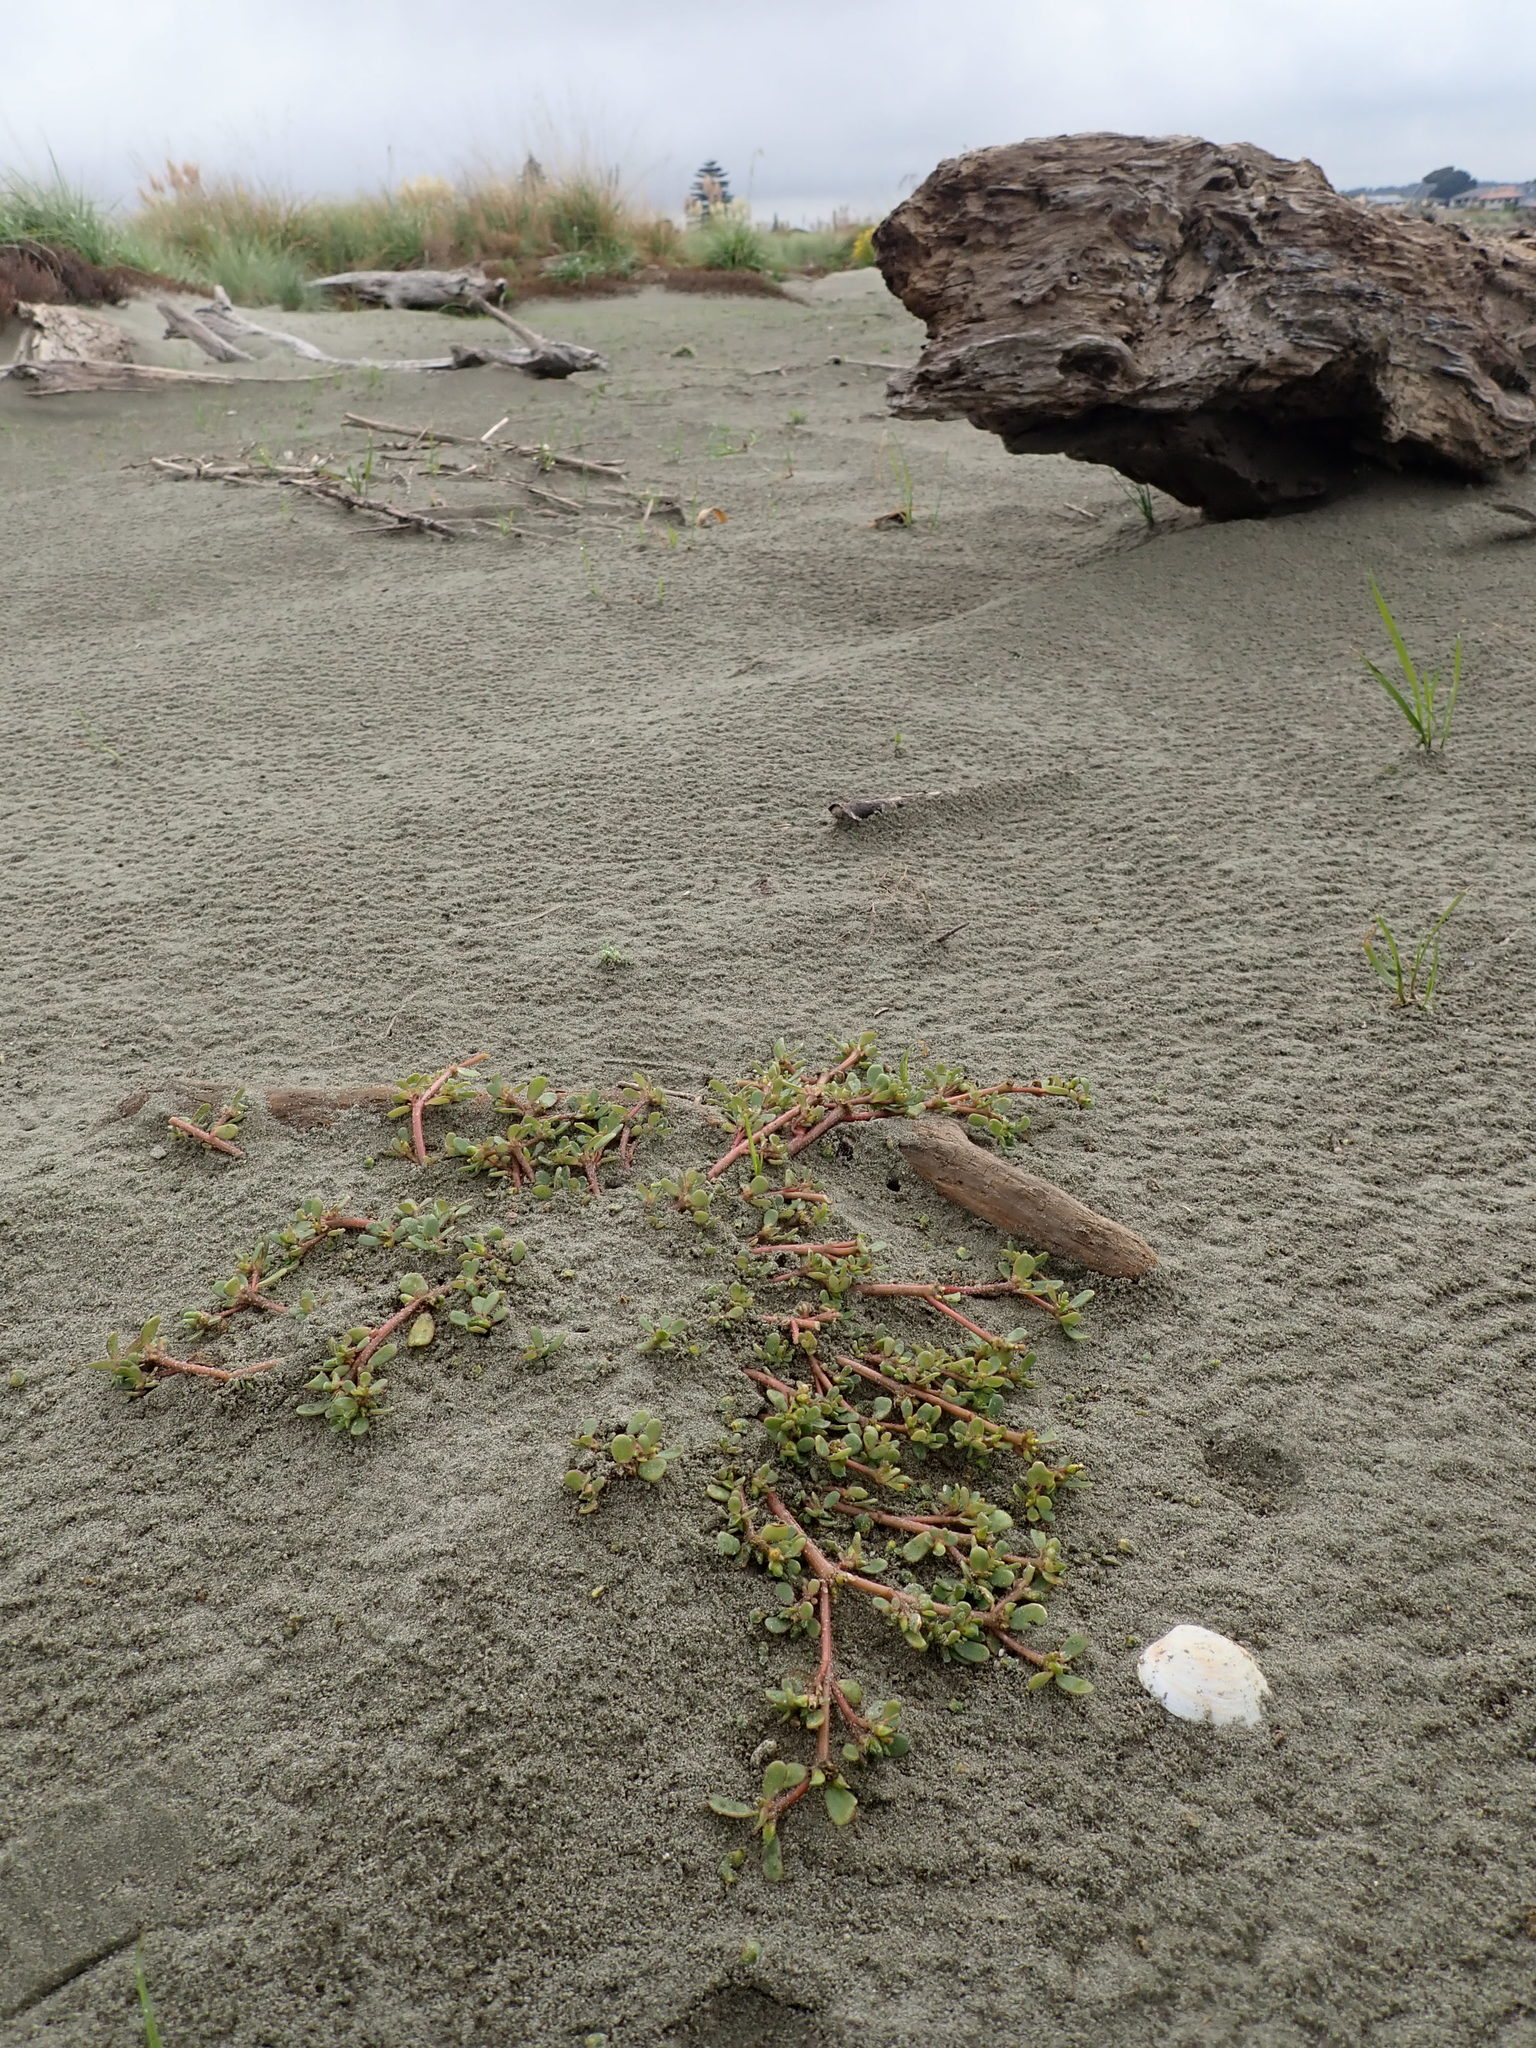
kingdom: Plantae
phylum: Tracheophyta
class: Magnoliopsida
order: Caryophyllales
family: Portulacaceae
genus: Portulaca
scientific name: Portulaca oleracea
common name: Common purslane
